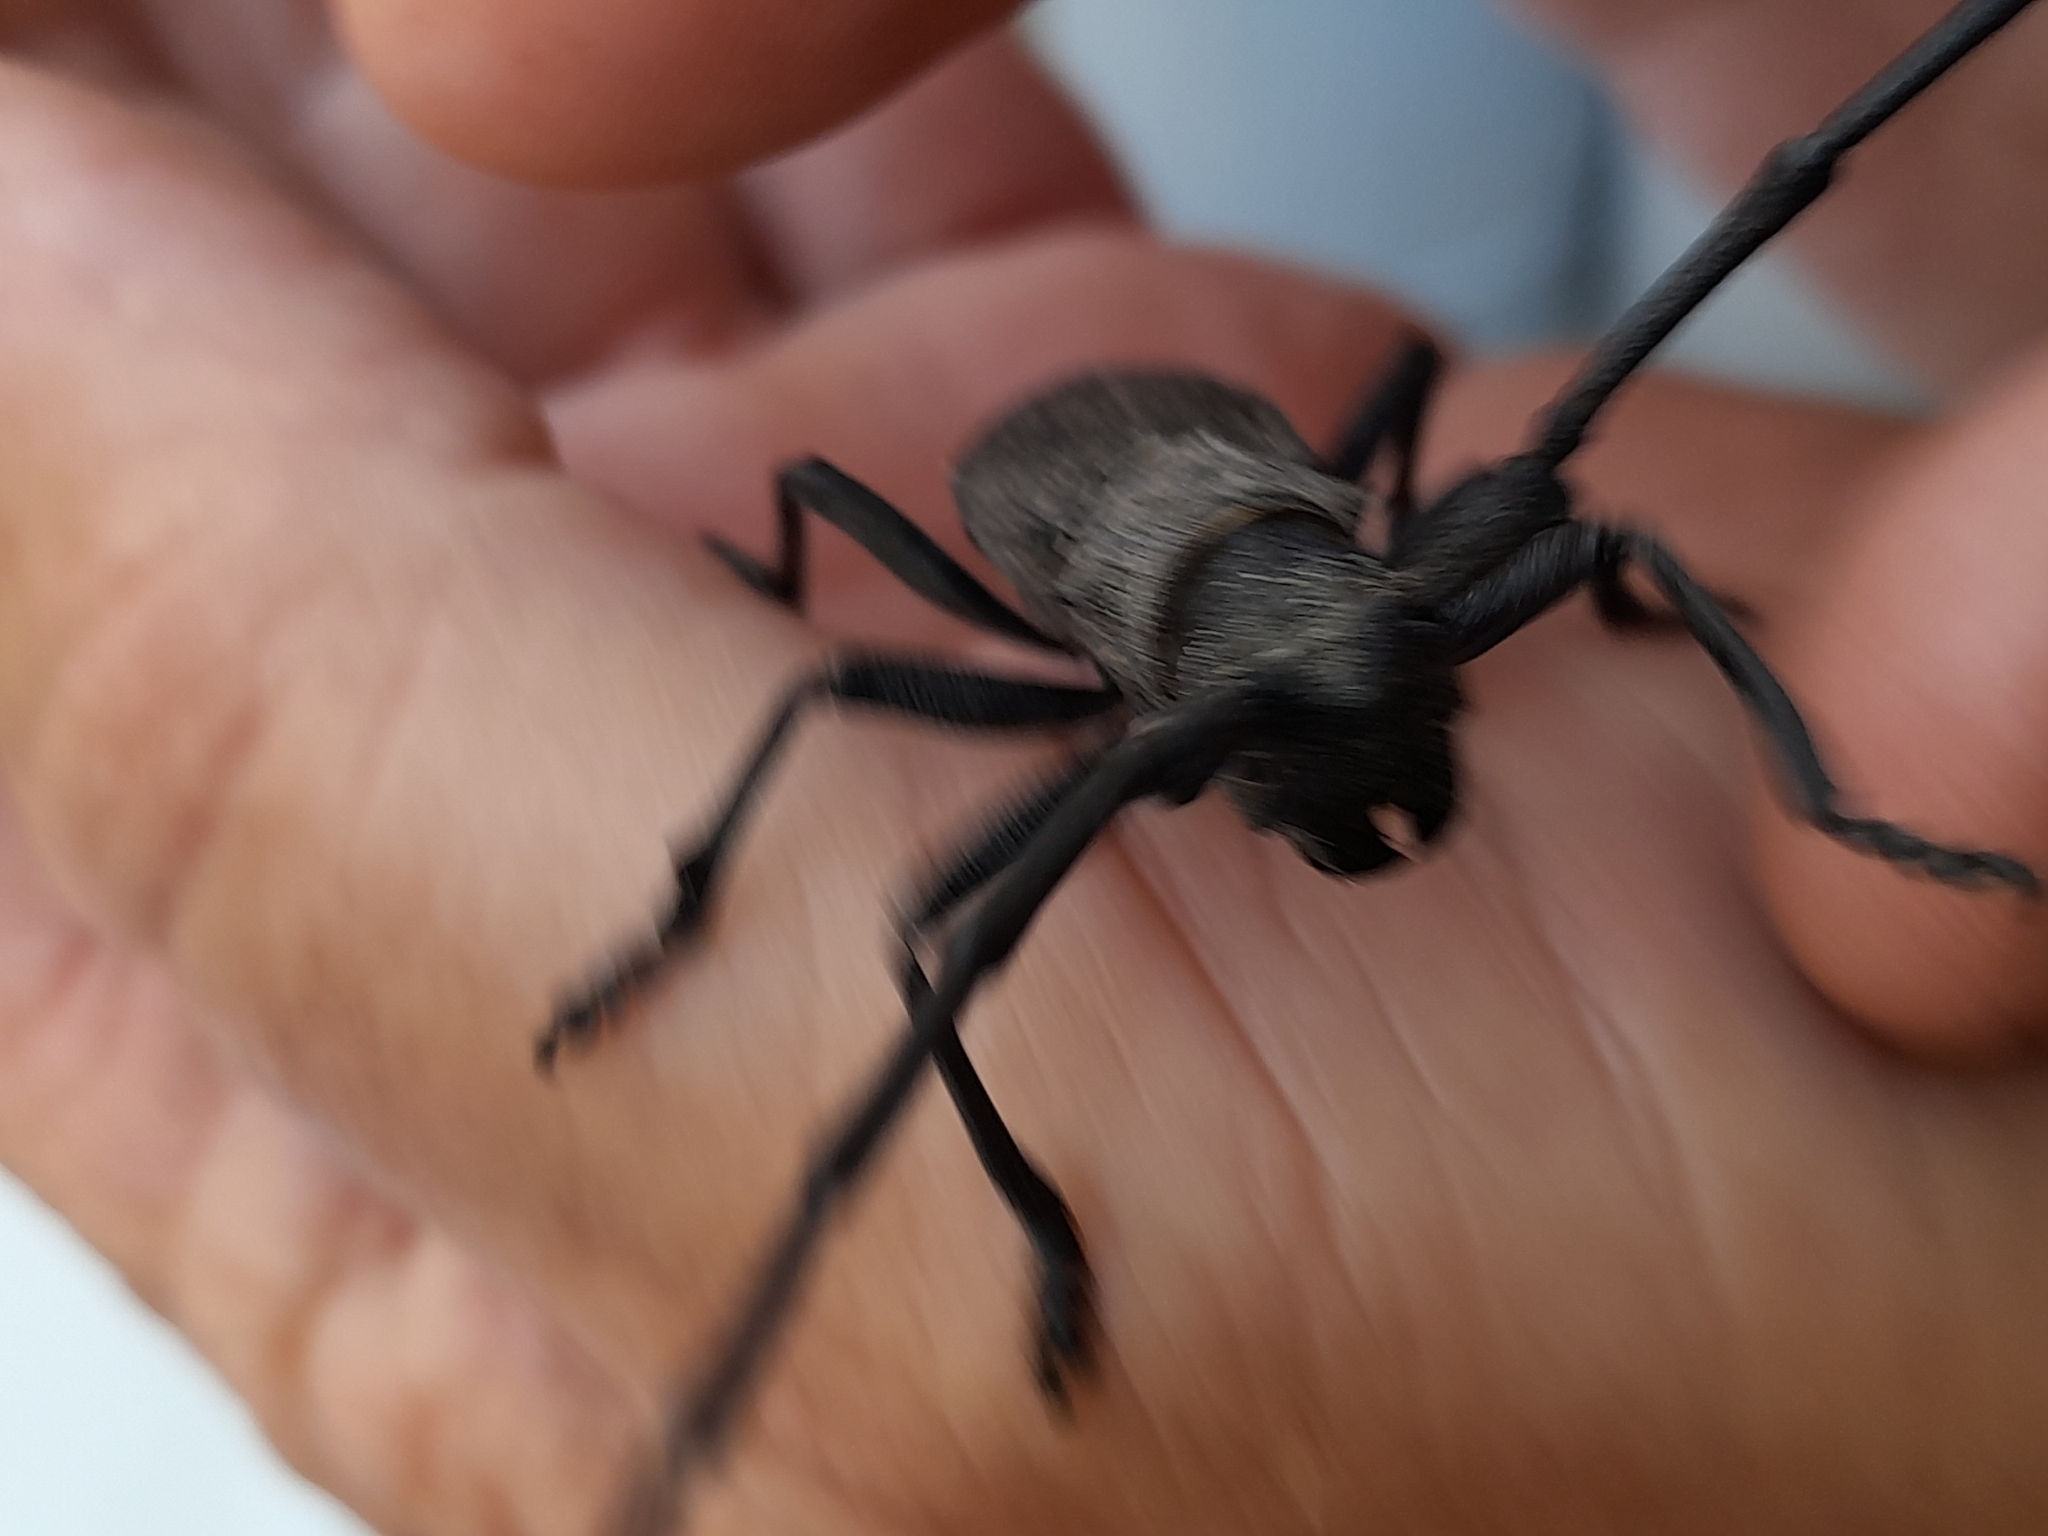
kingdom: Animalia
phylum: Arthropoda
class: Insecta
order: Coleoptera
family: Cerambycidae
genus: Morimus
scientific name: Morimus asper
